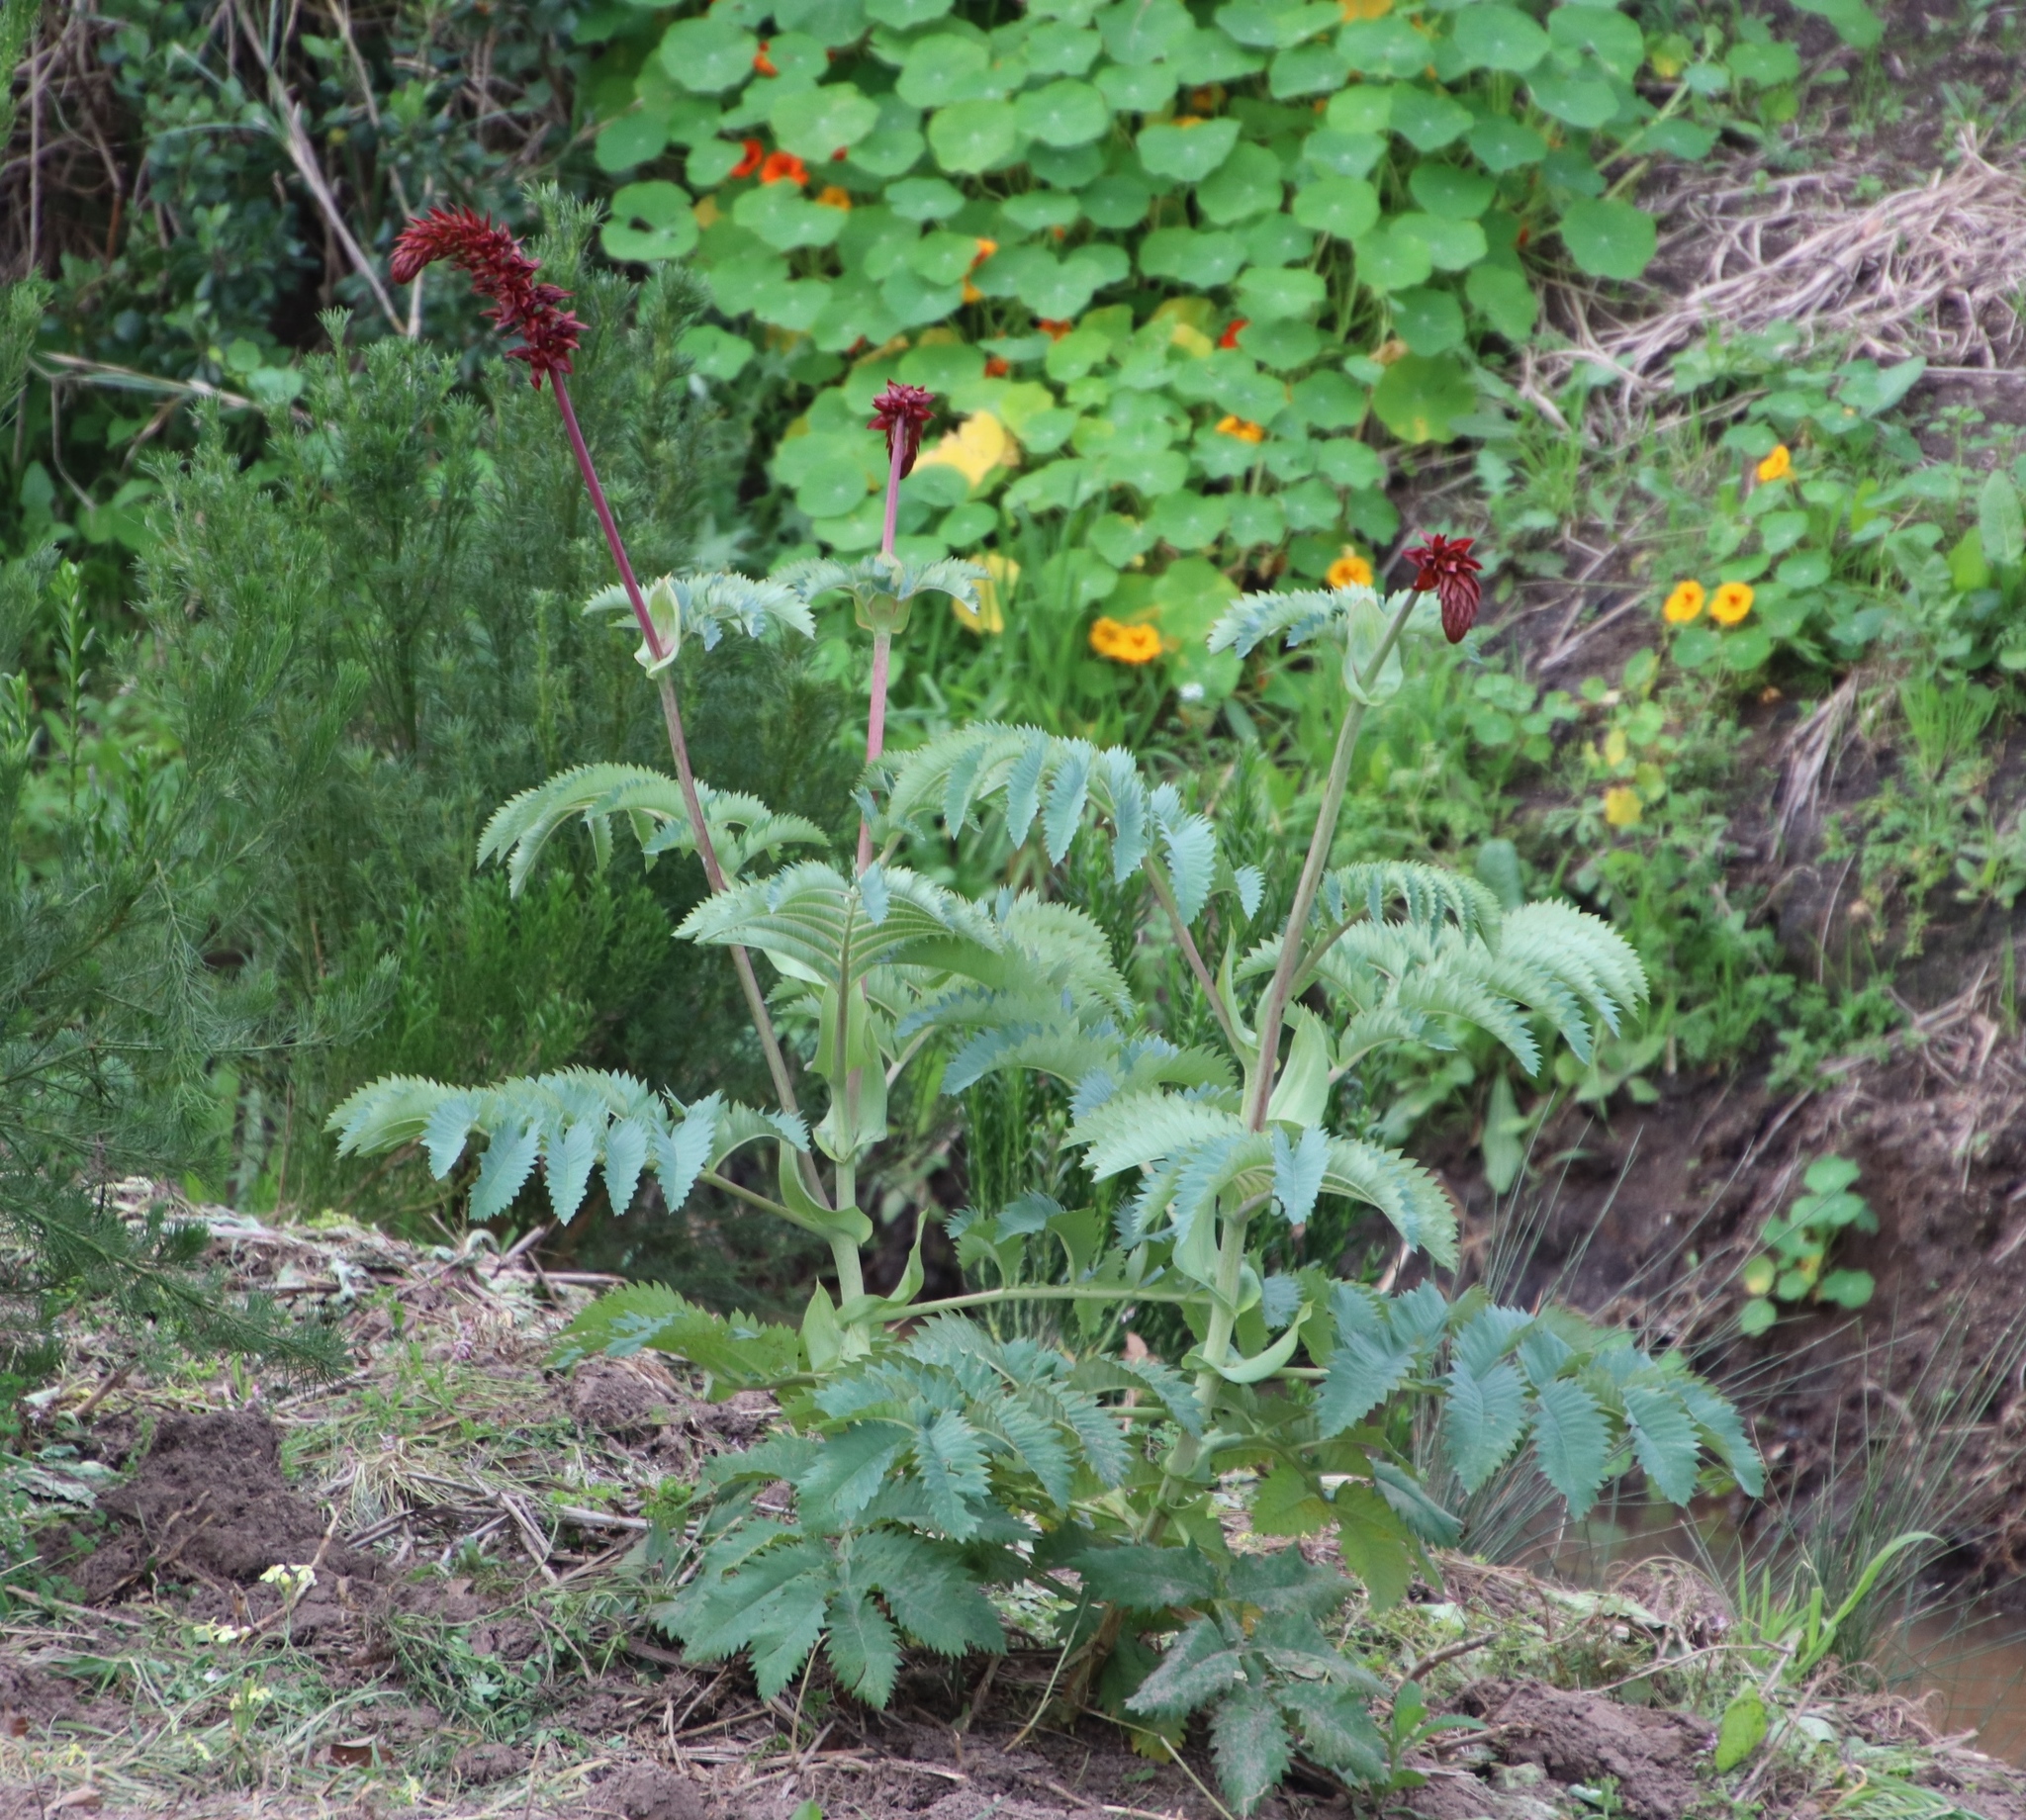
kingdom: Plantae
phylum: Tracheophyta
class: Magnoliopsida
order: Geraniales
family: Melianthaceae
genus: Melianthus
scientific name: Melianthus major
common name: Honey-flower
